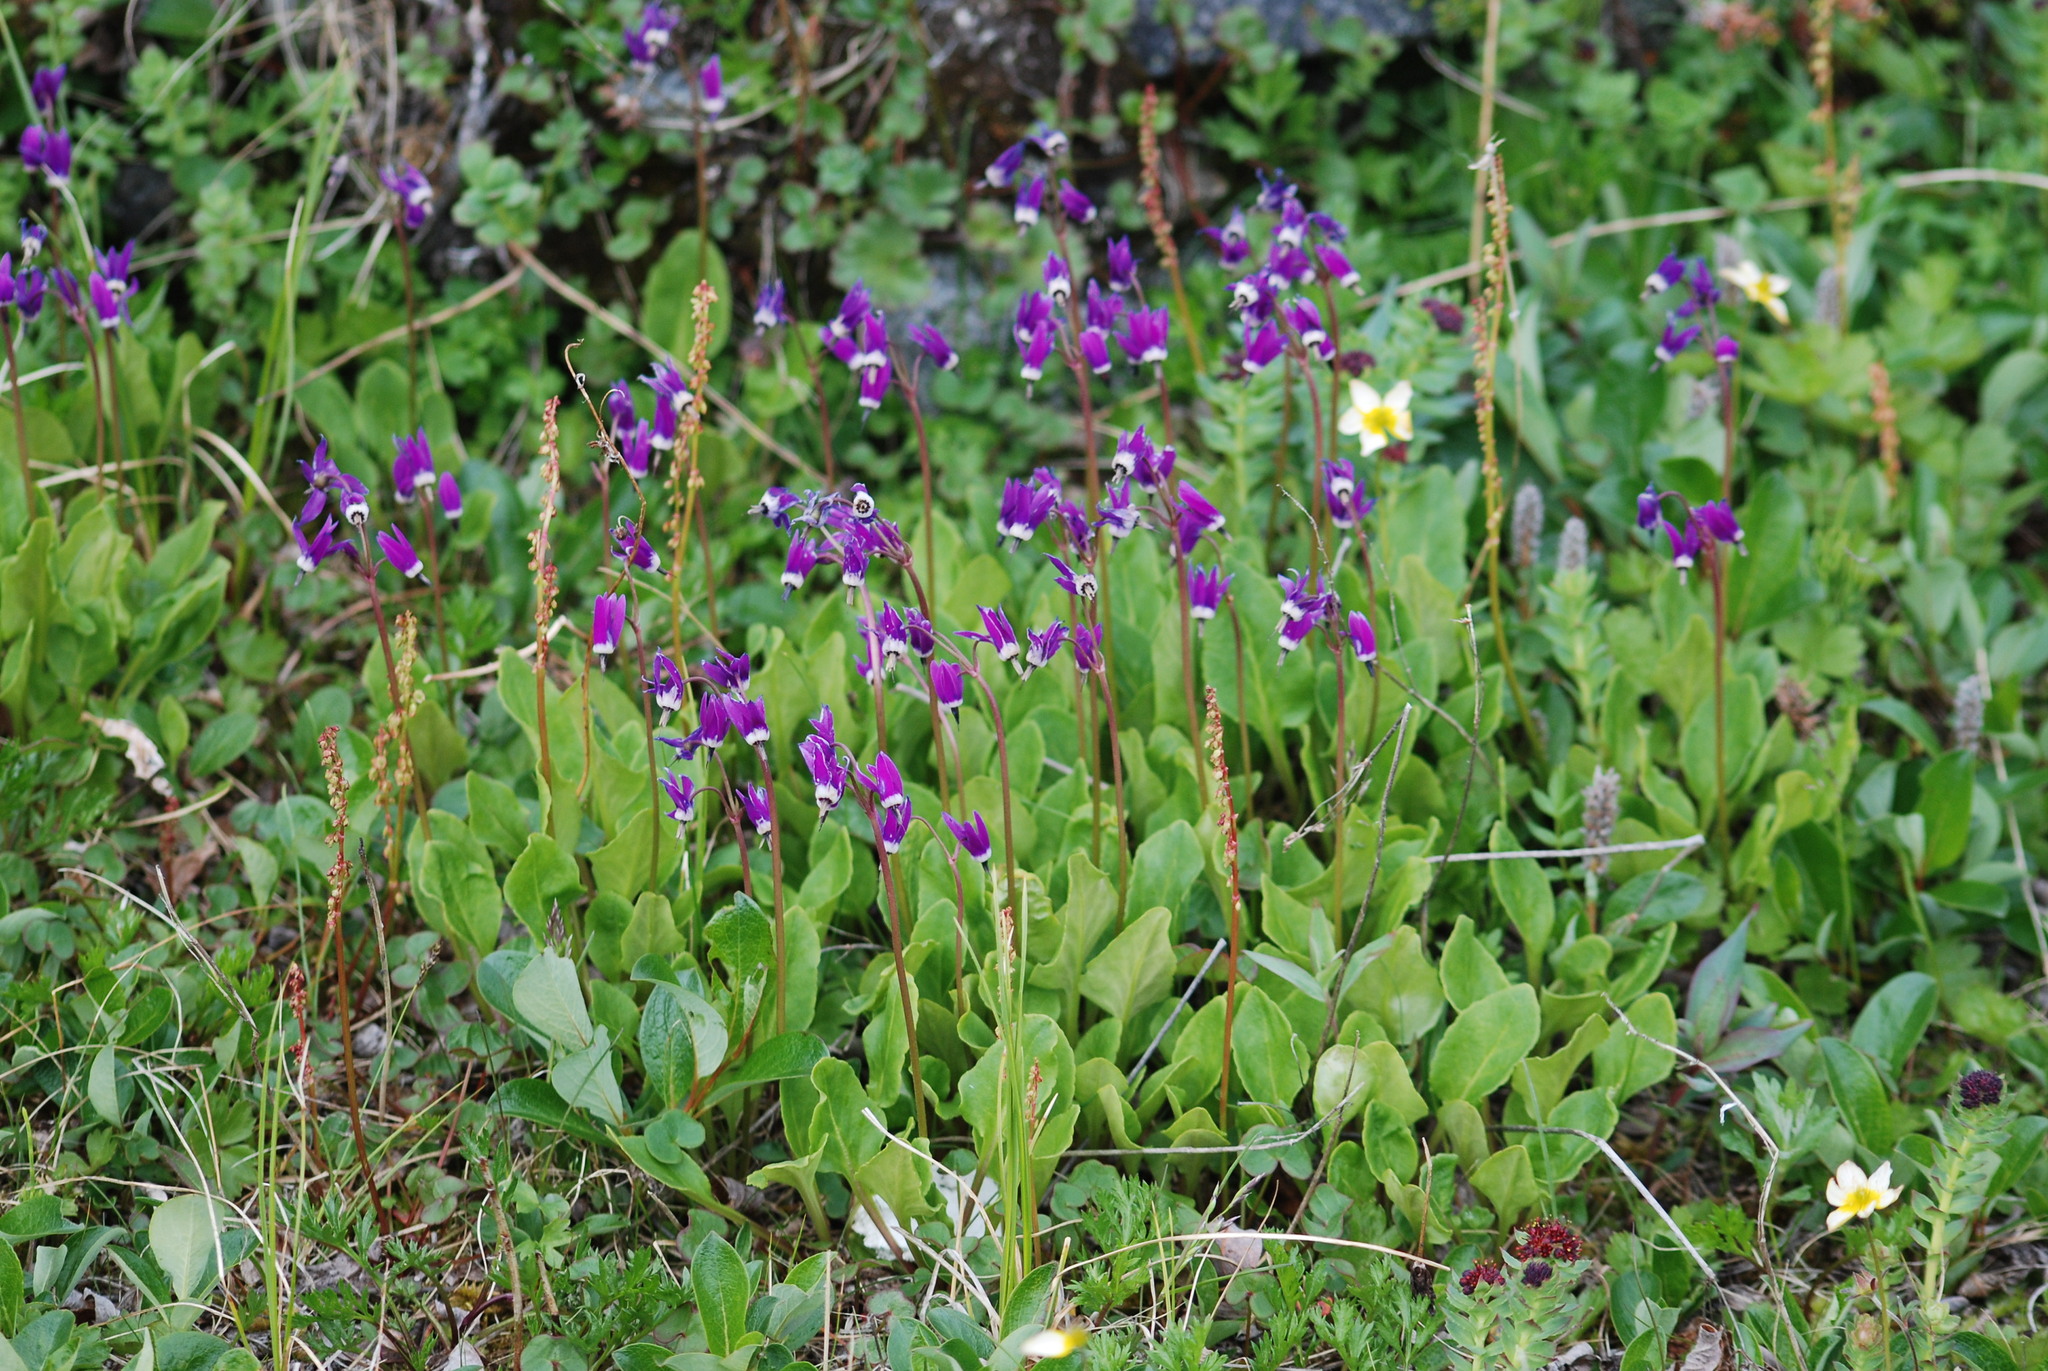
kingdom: Plantae
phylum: Tracheophyta
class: Magnoliopsida
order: Ericales
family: Primulaceae
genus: Dodecatheon
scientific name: Dodecatheon frigidum
